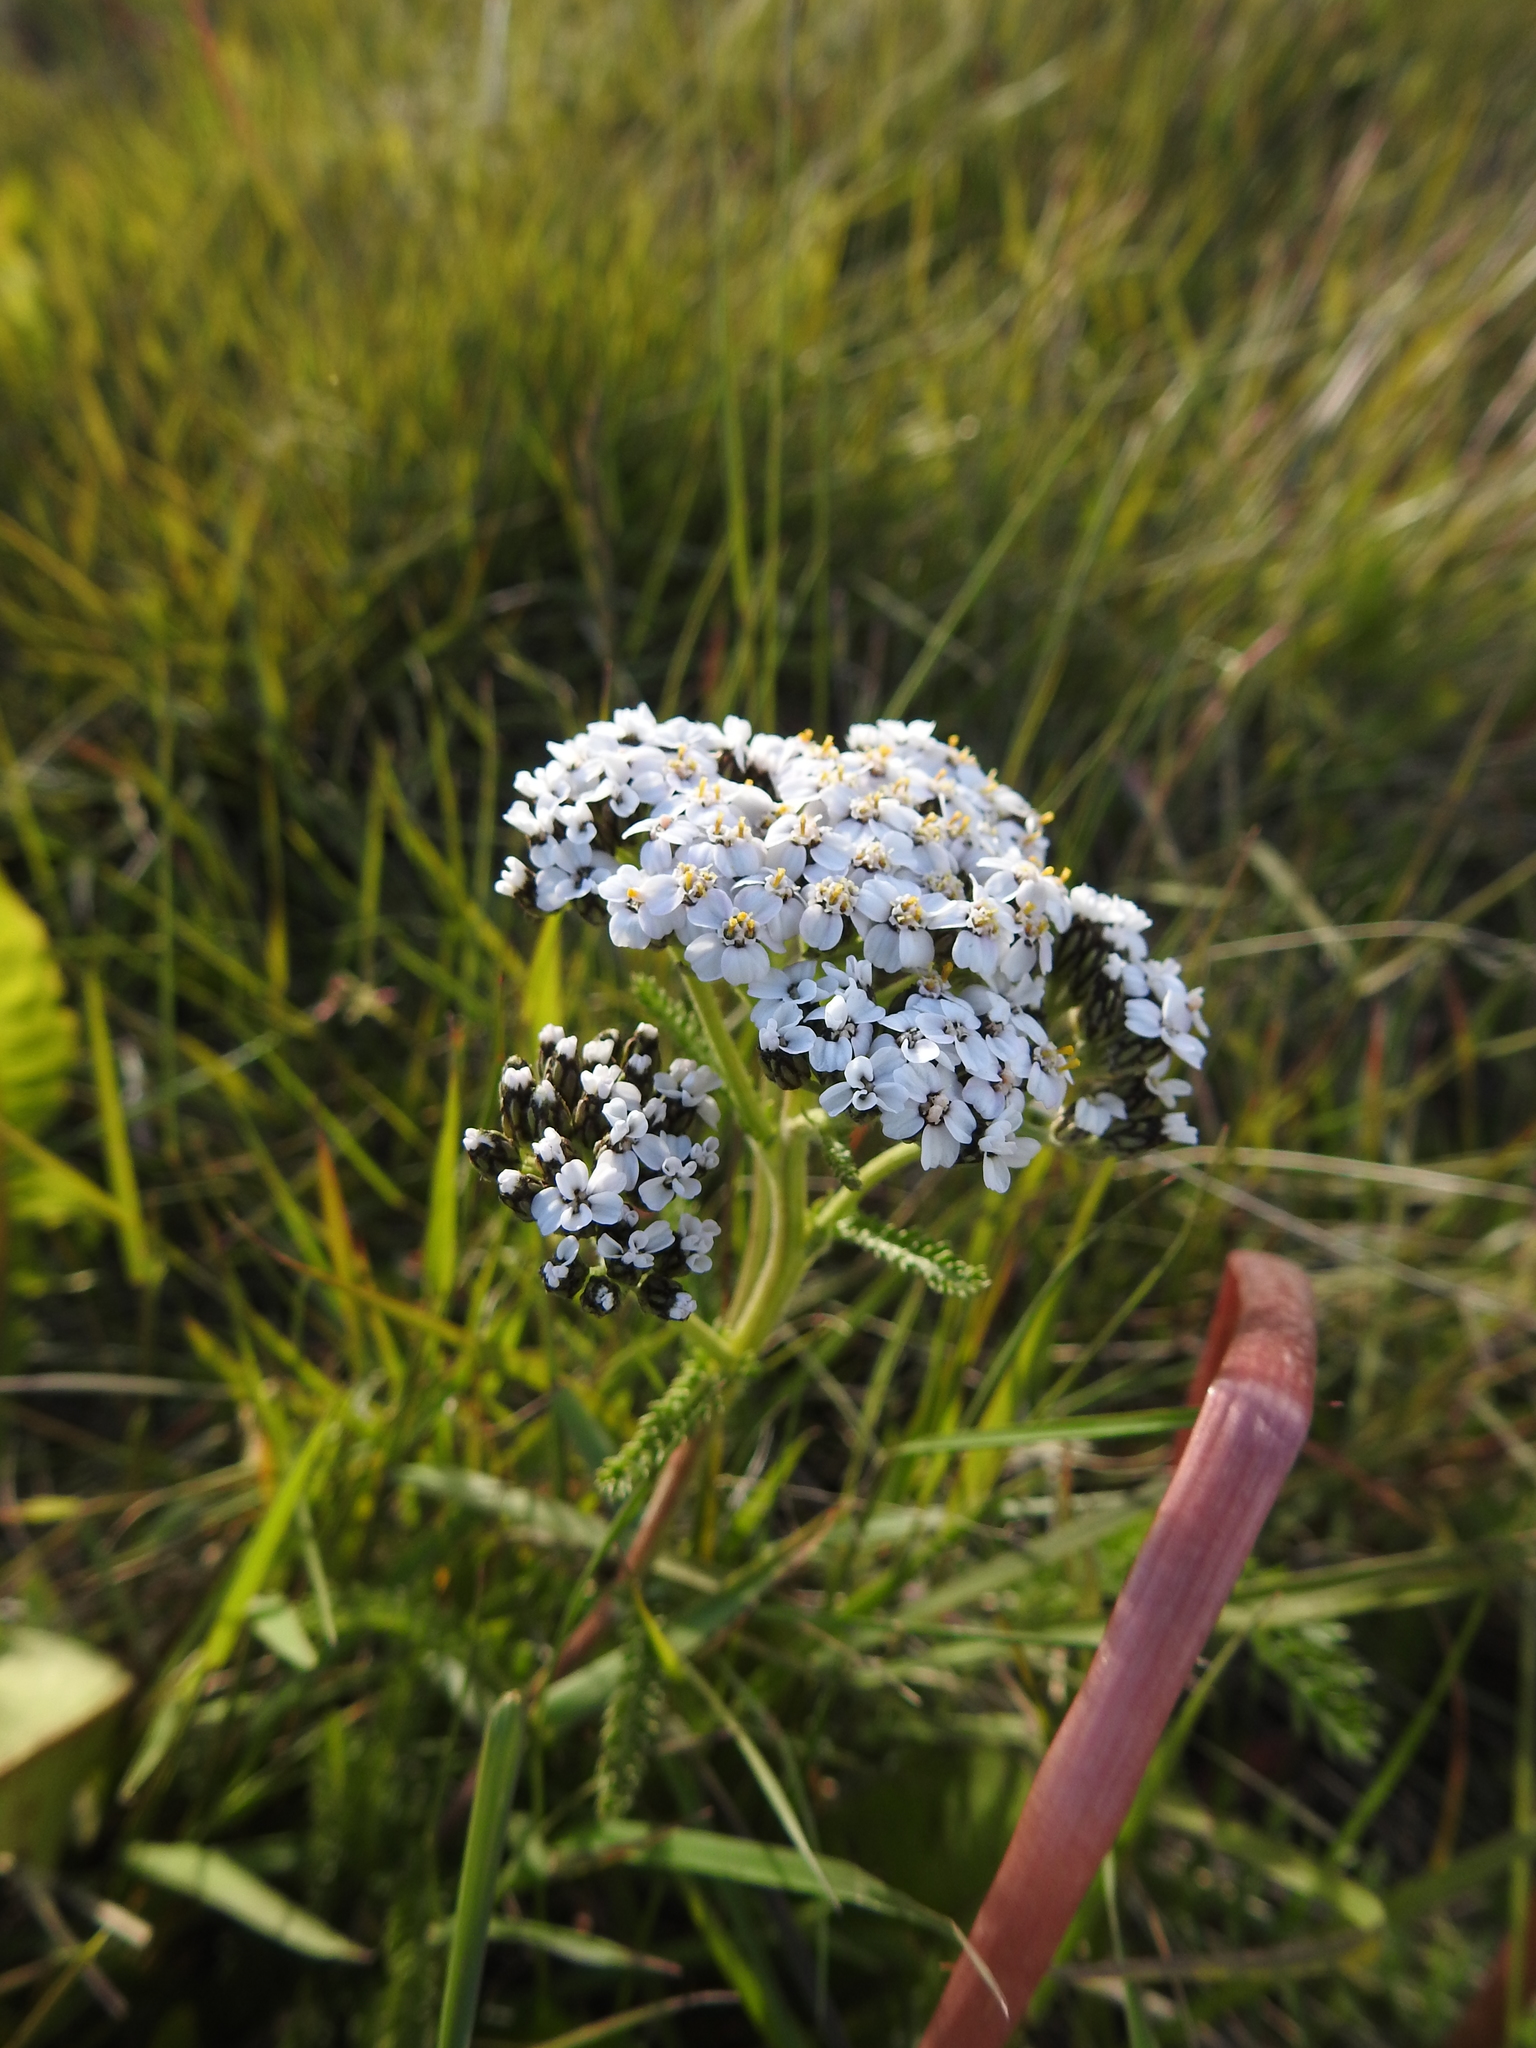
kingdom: Plantae
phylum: Tracheophyta
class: Magnoliopsida
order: Asterales
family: Asteraceae
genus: Achillea
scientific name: Achillea millefolium
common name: Yarrow
